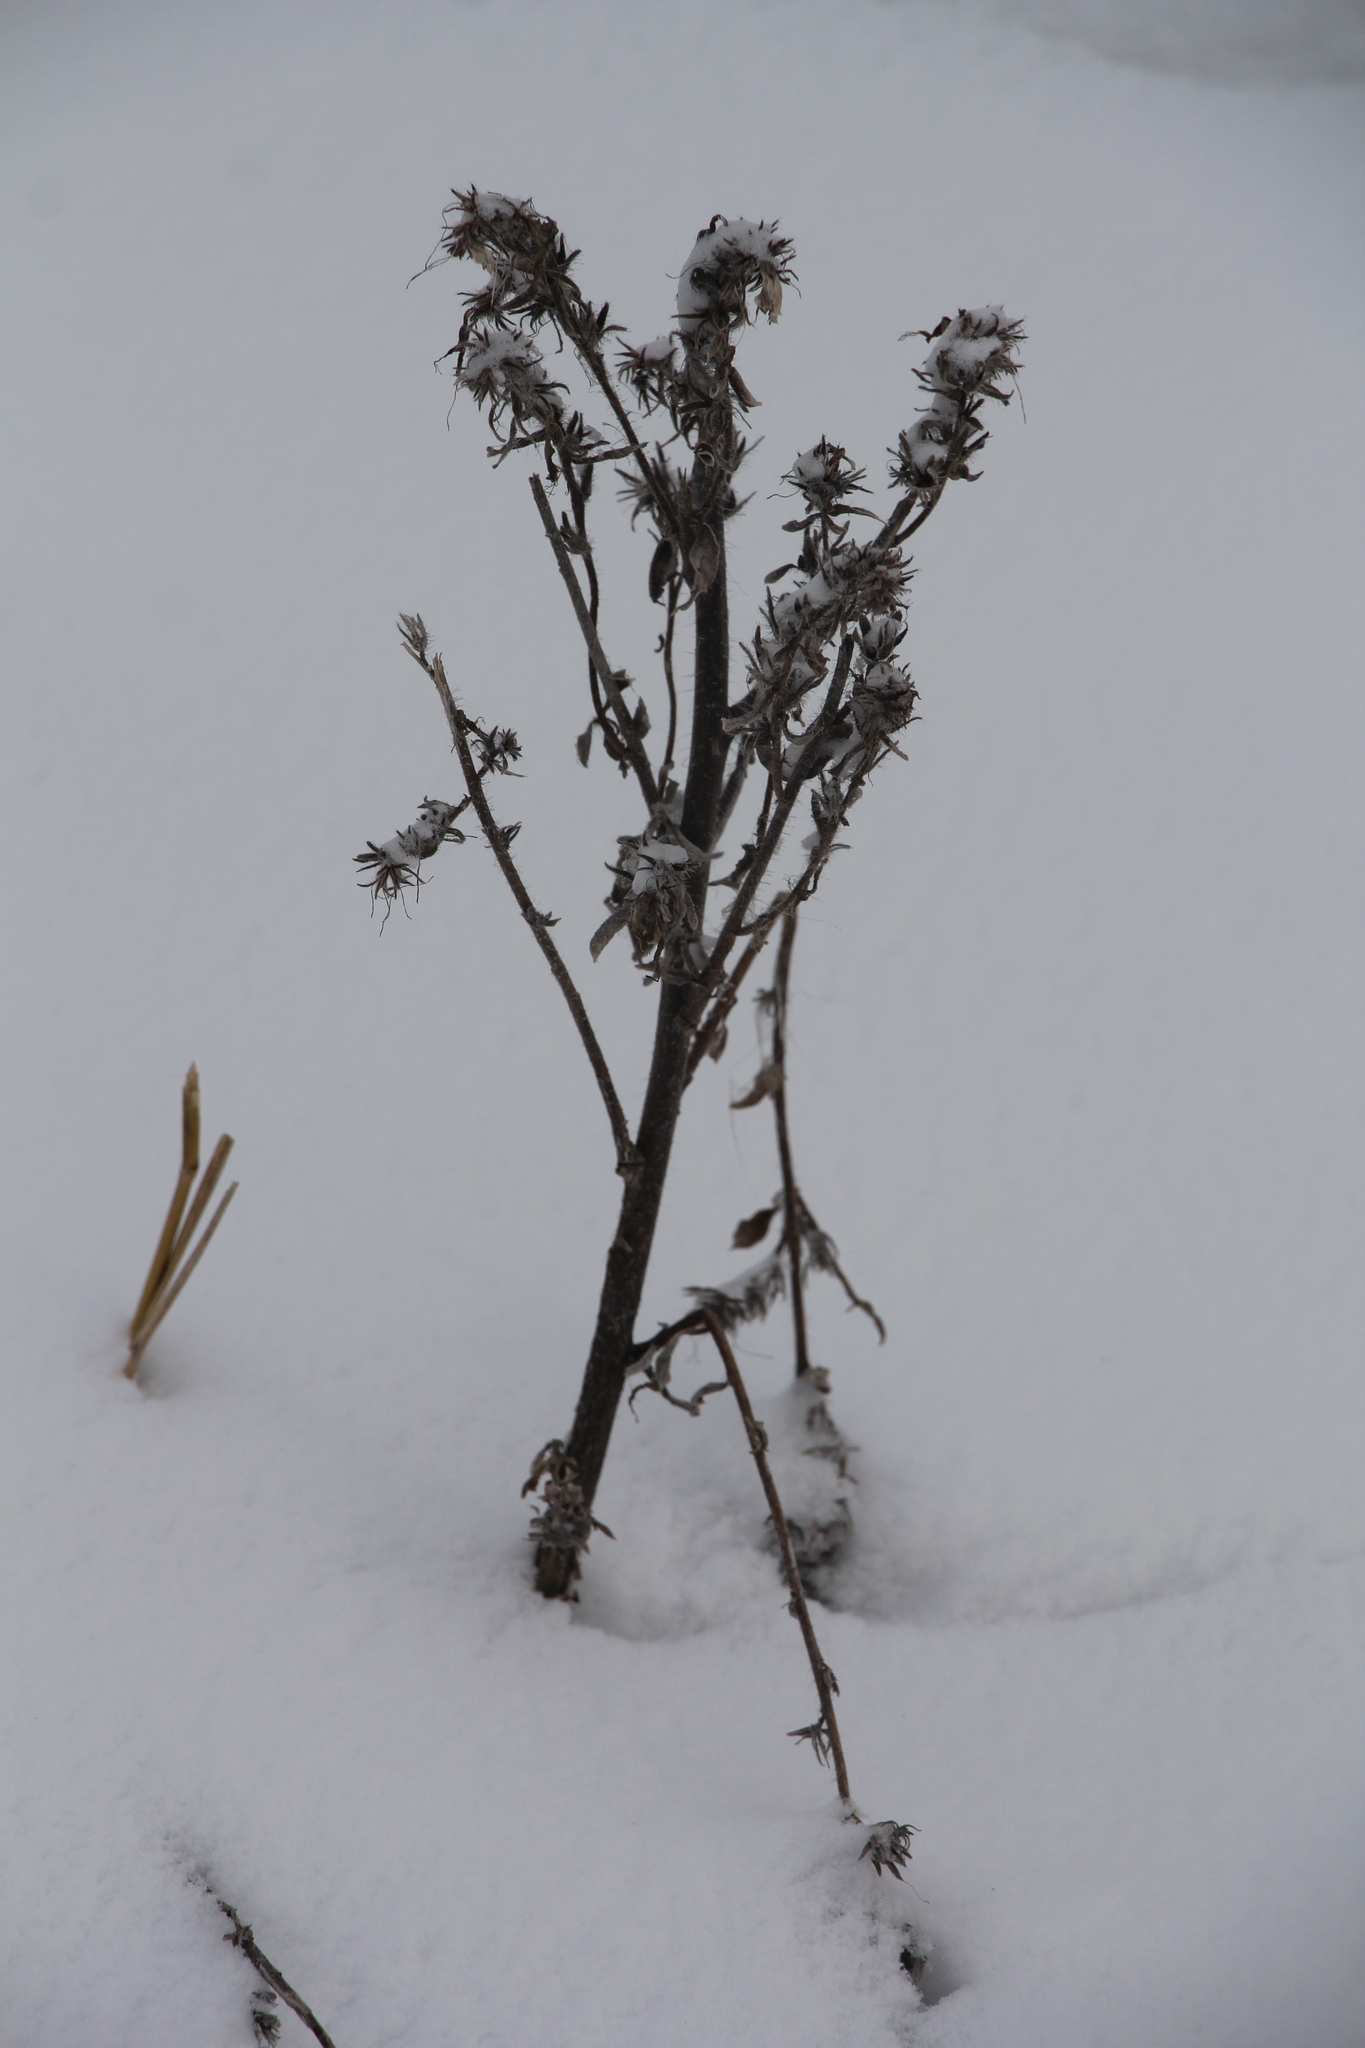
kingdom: Plantae
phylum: Tracheophyta
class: Magnoliopsida
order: Boraginales
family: Boraginaceae
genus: Echium
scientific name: Echium vulgare
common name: Common viper's bugloss
